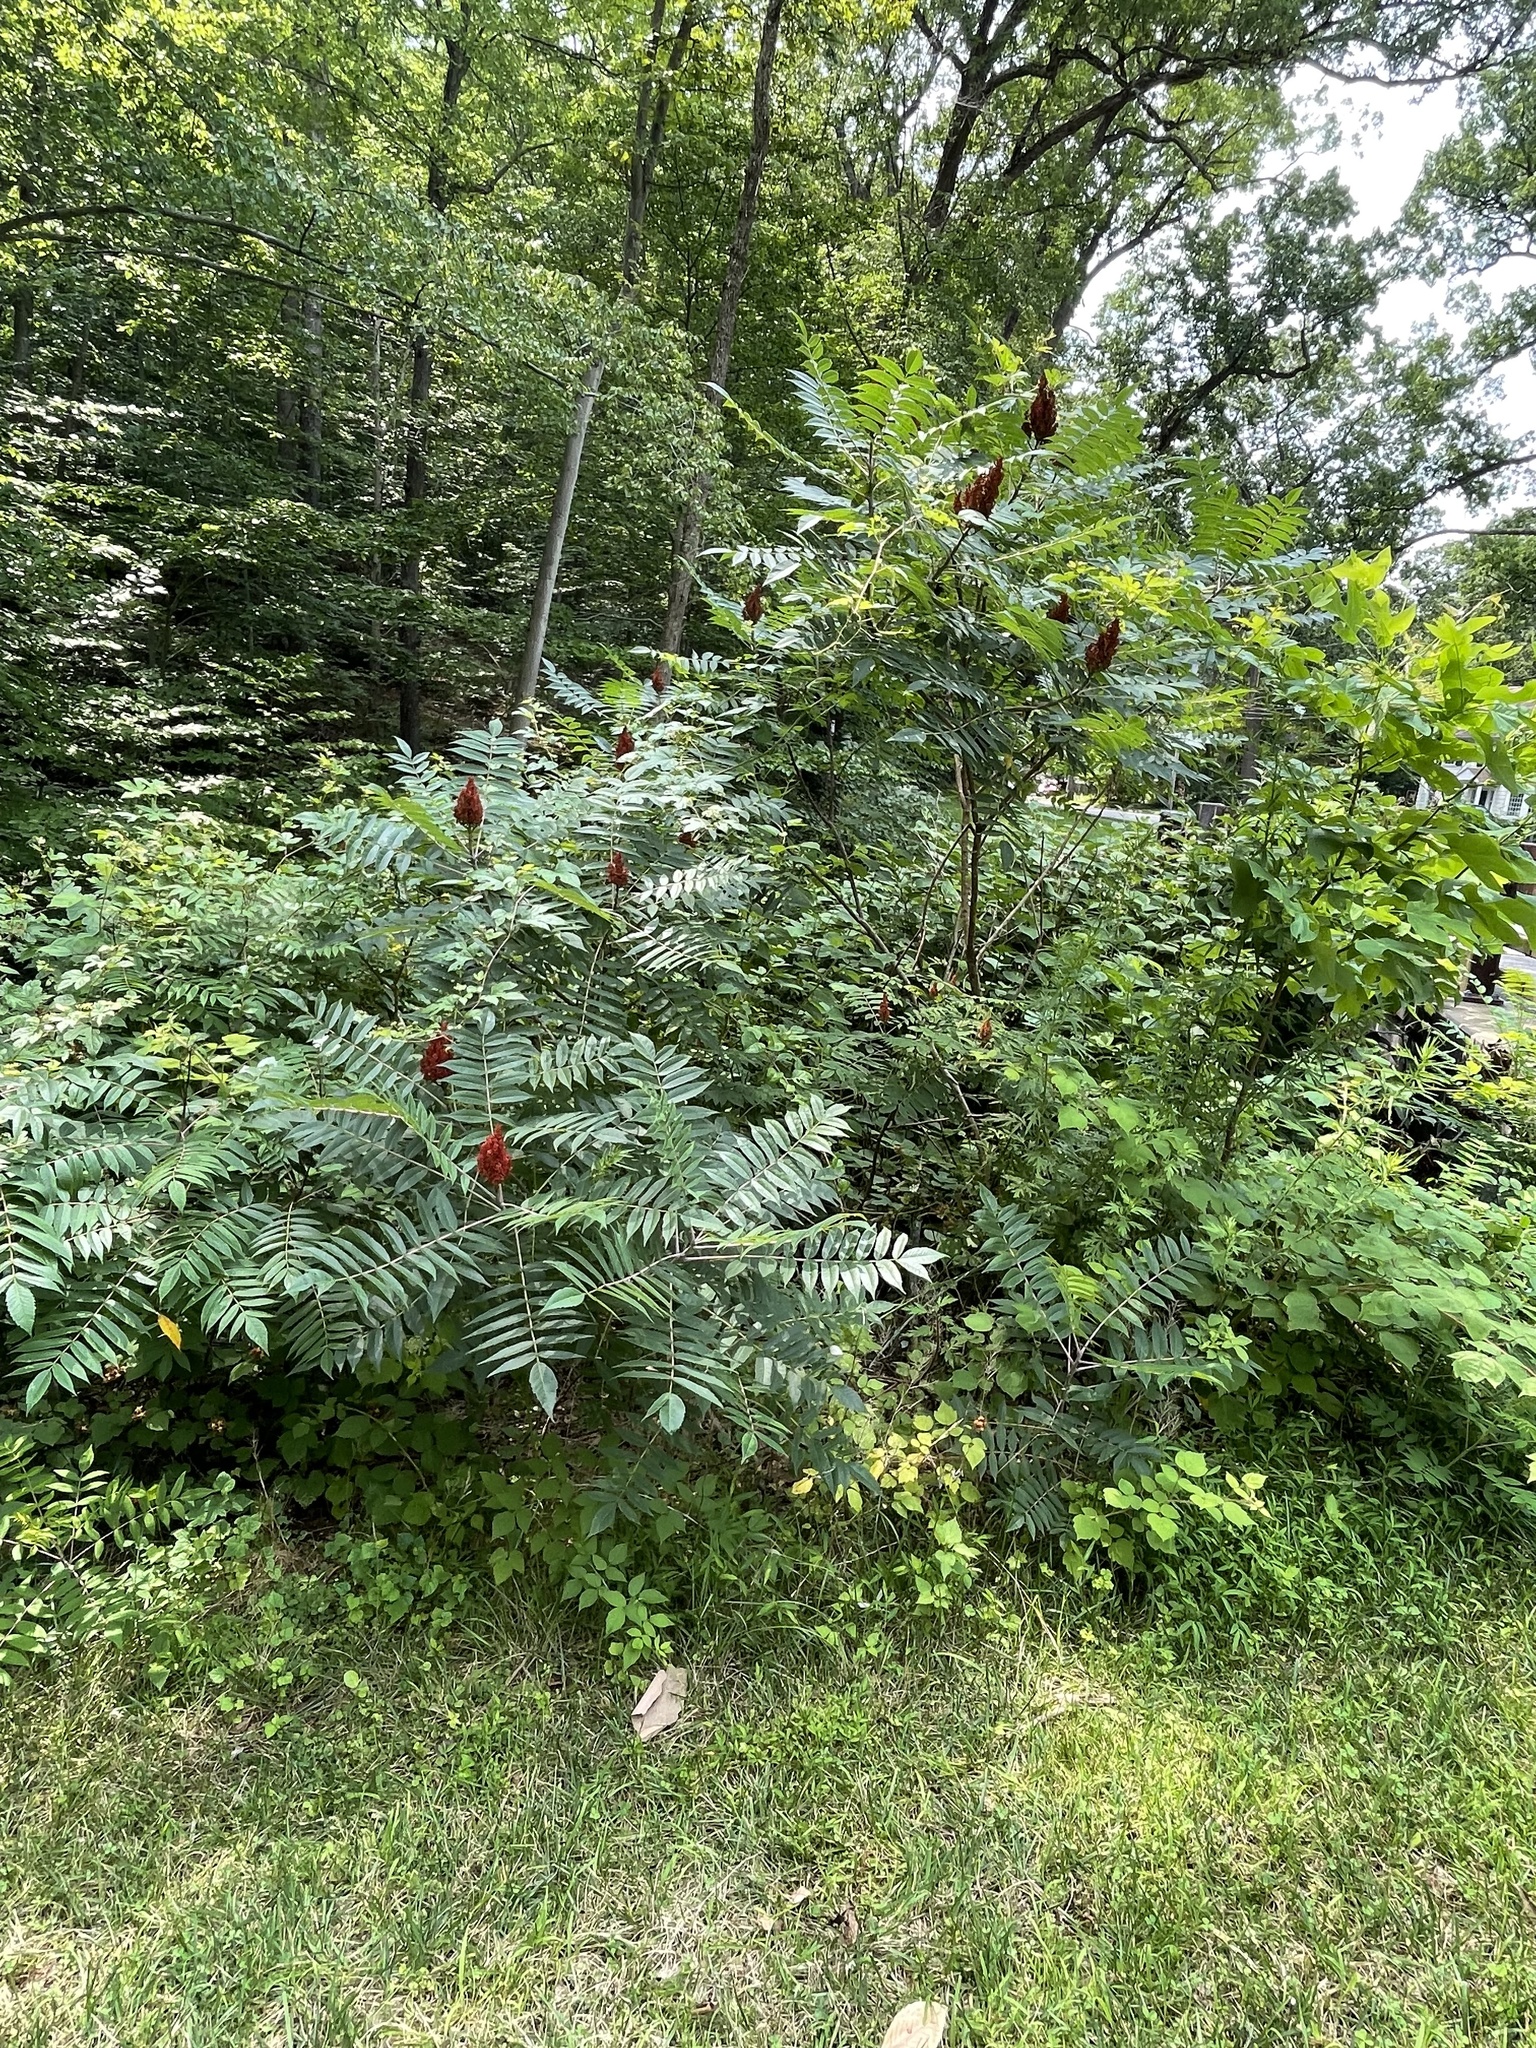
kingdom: Plantae
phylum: Tracheophyta
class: Magnoliopsida
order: Sapindales
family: Anacardiaceae
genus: Rhus
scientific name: Rhus glabra
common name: Scarlet sumac
